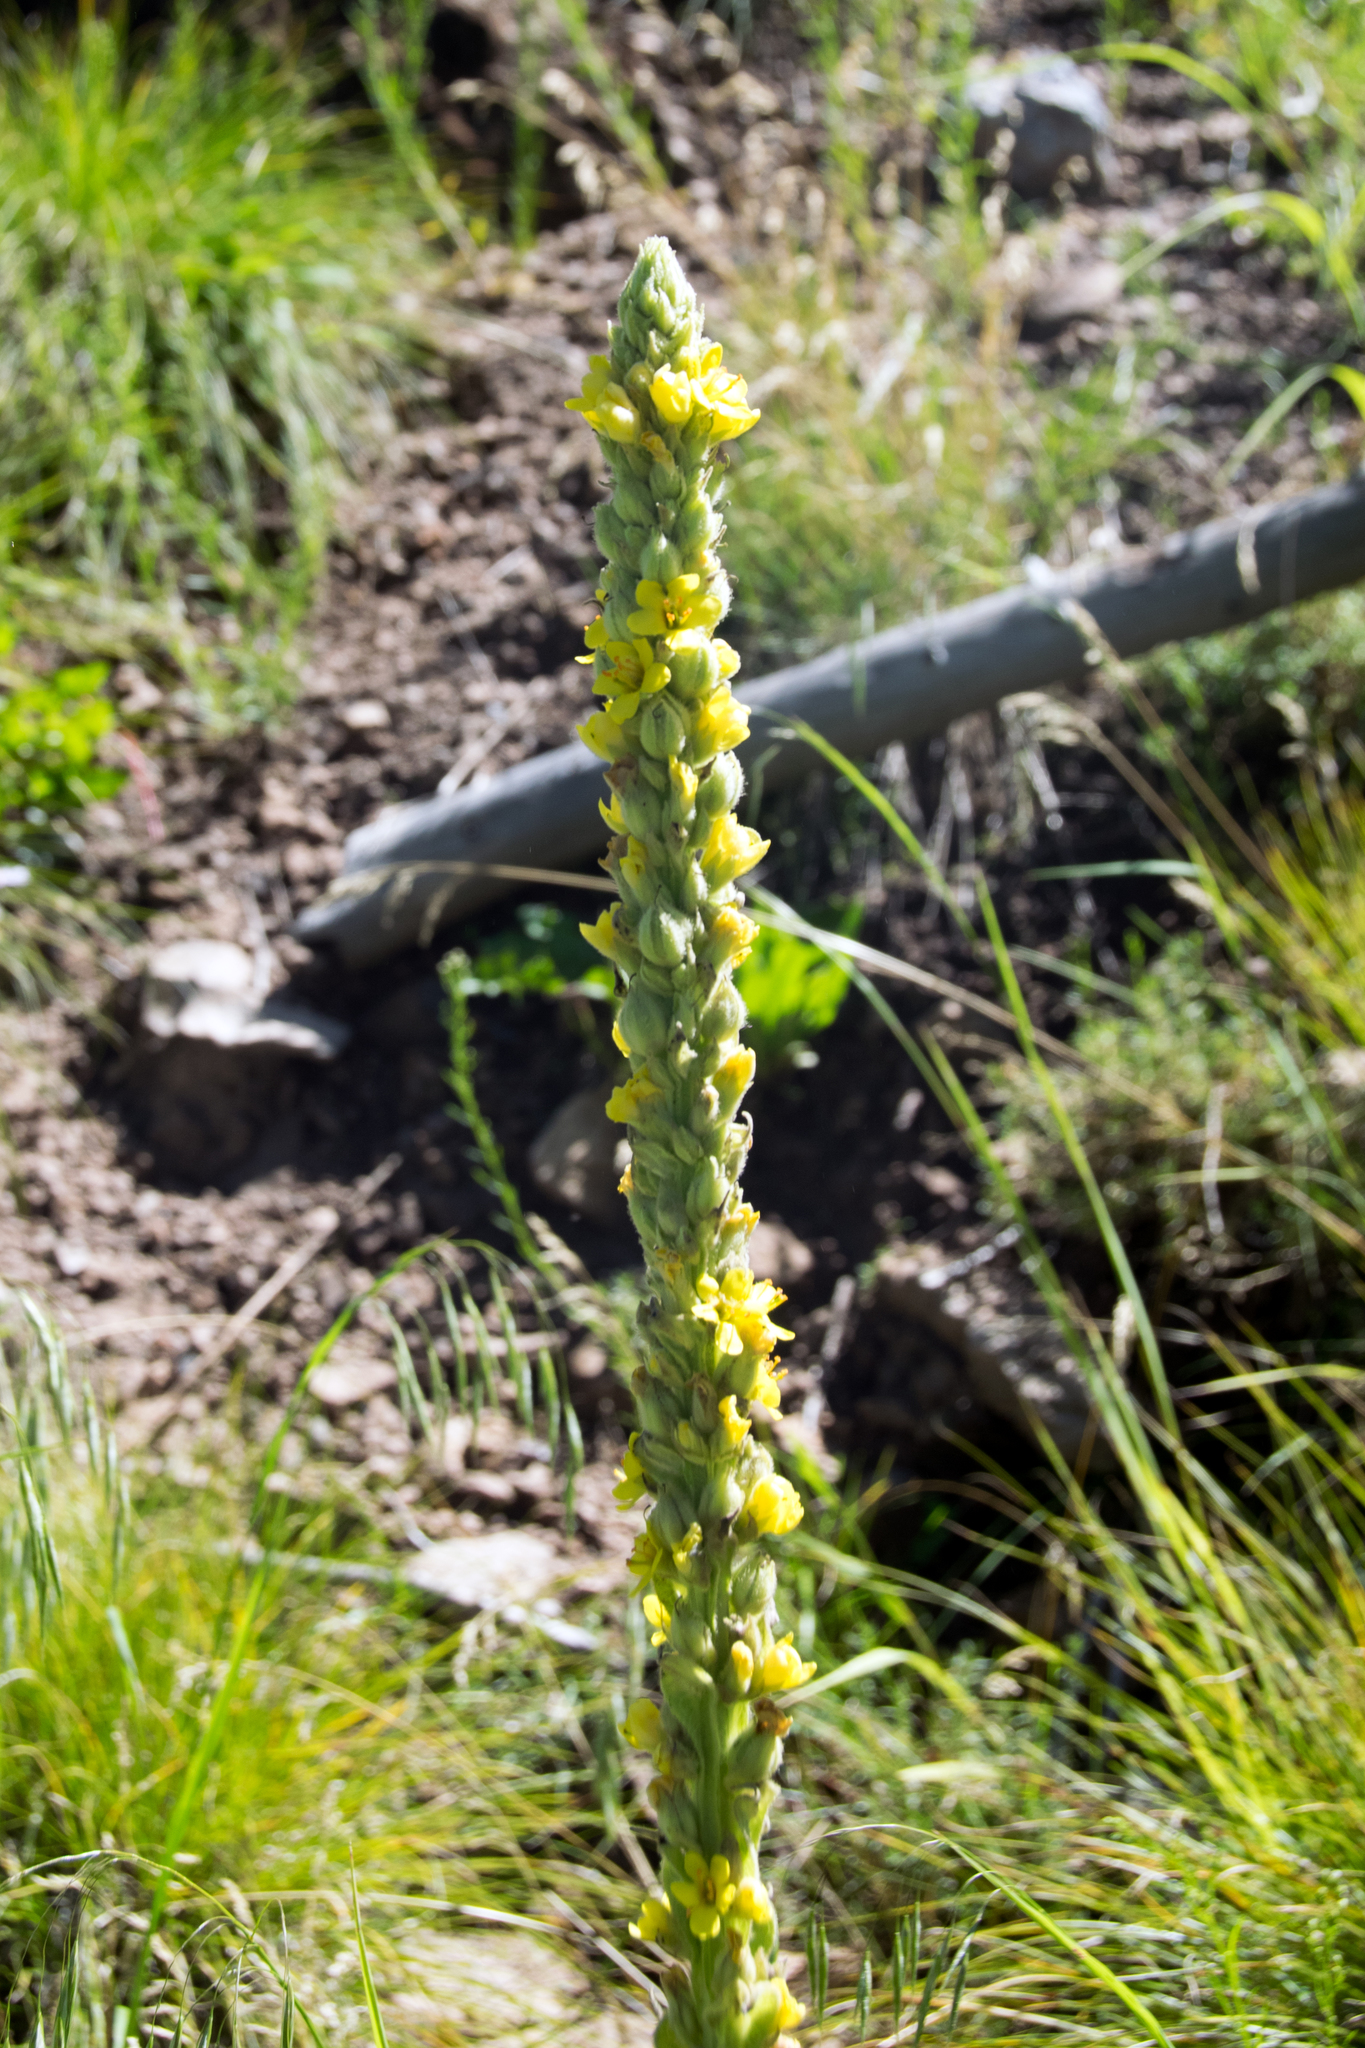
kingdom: Plantae
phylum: Tracheophyta
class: Magnoliopsida
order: Lamiales
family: Scrophulariaceae
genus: Verbascum
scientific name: Verbascum thapsus
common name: Common mullein
